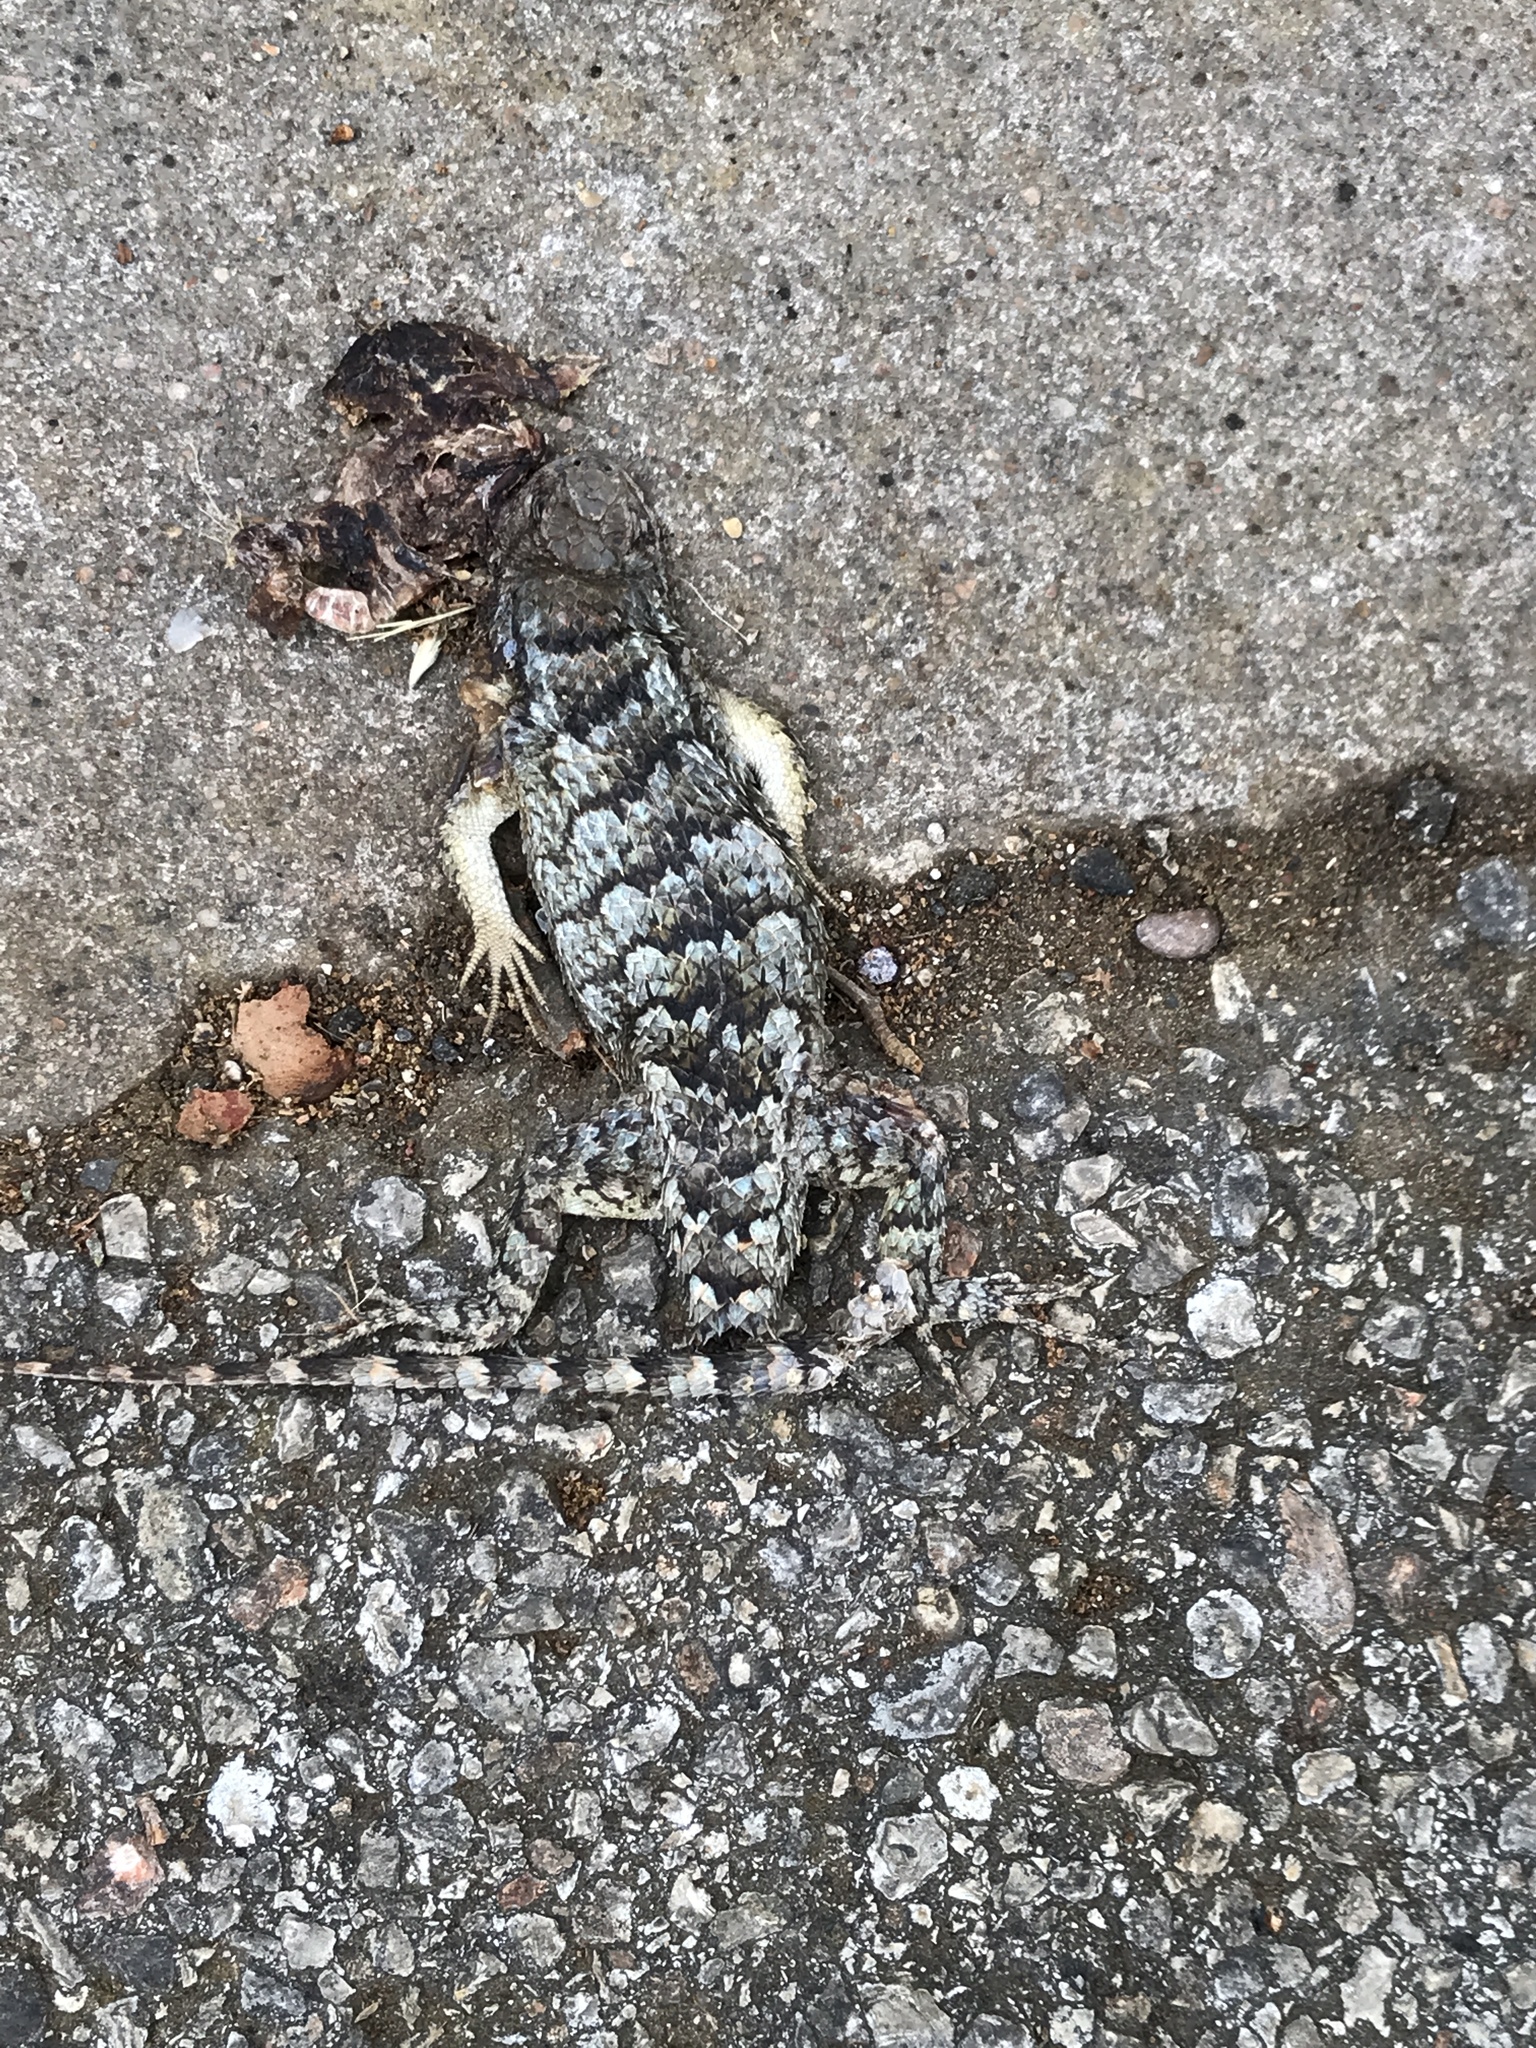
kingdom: Animalia
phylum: Chordata
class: Squamata
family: Phrynosomatidae
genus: Sceloporus
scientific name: Sceloporus olivaceus
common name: Texas spiny lizard
